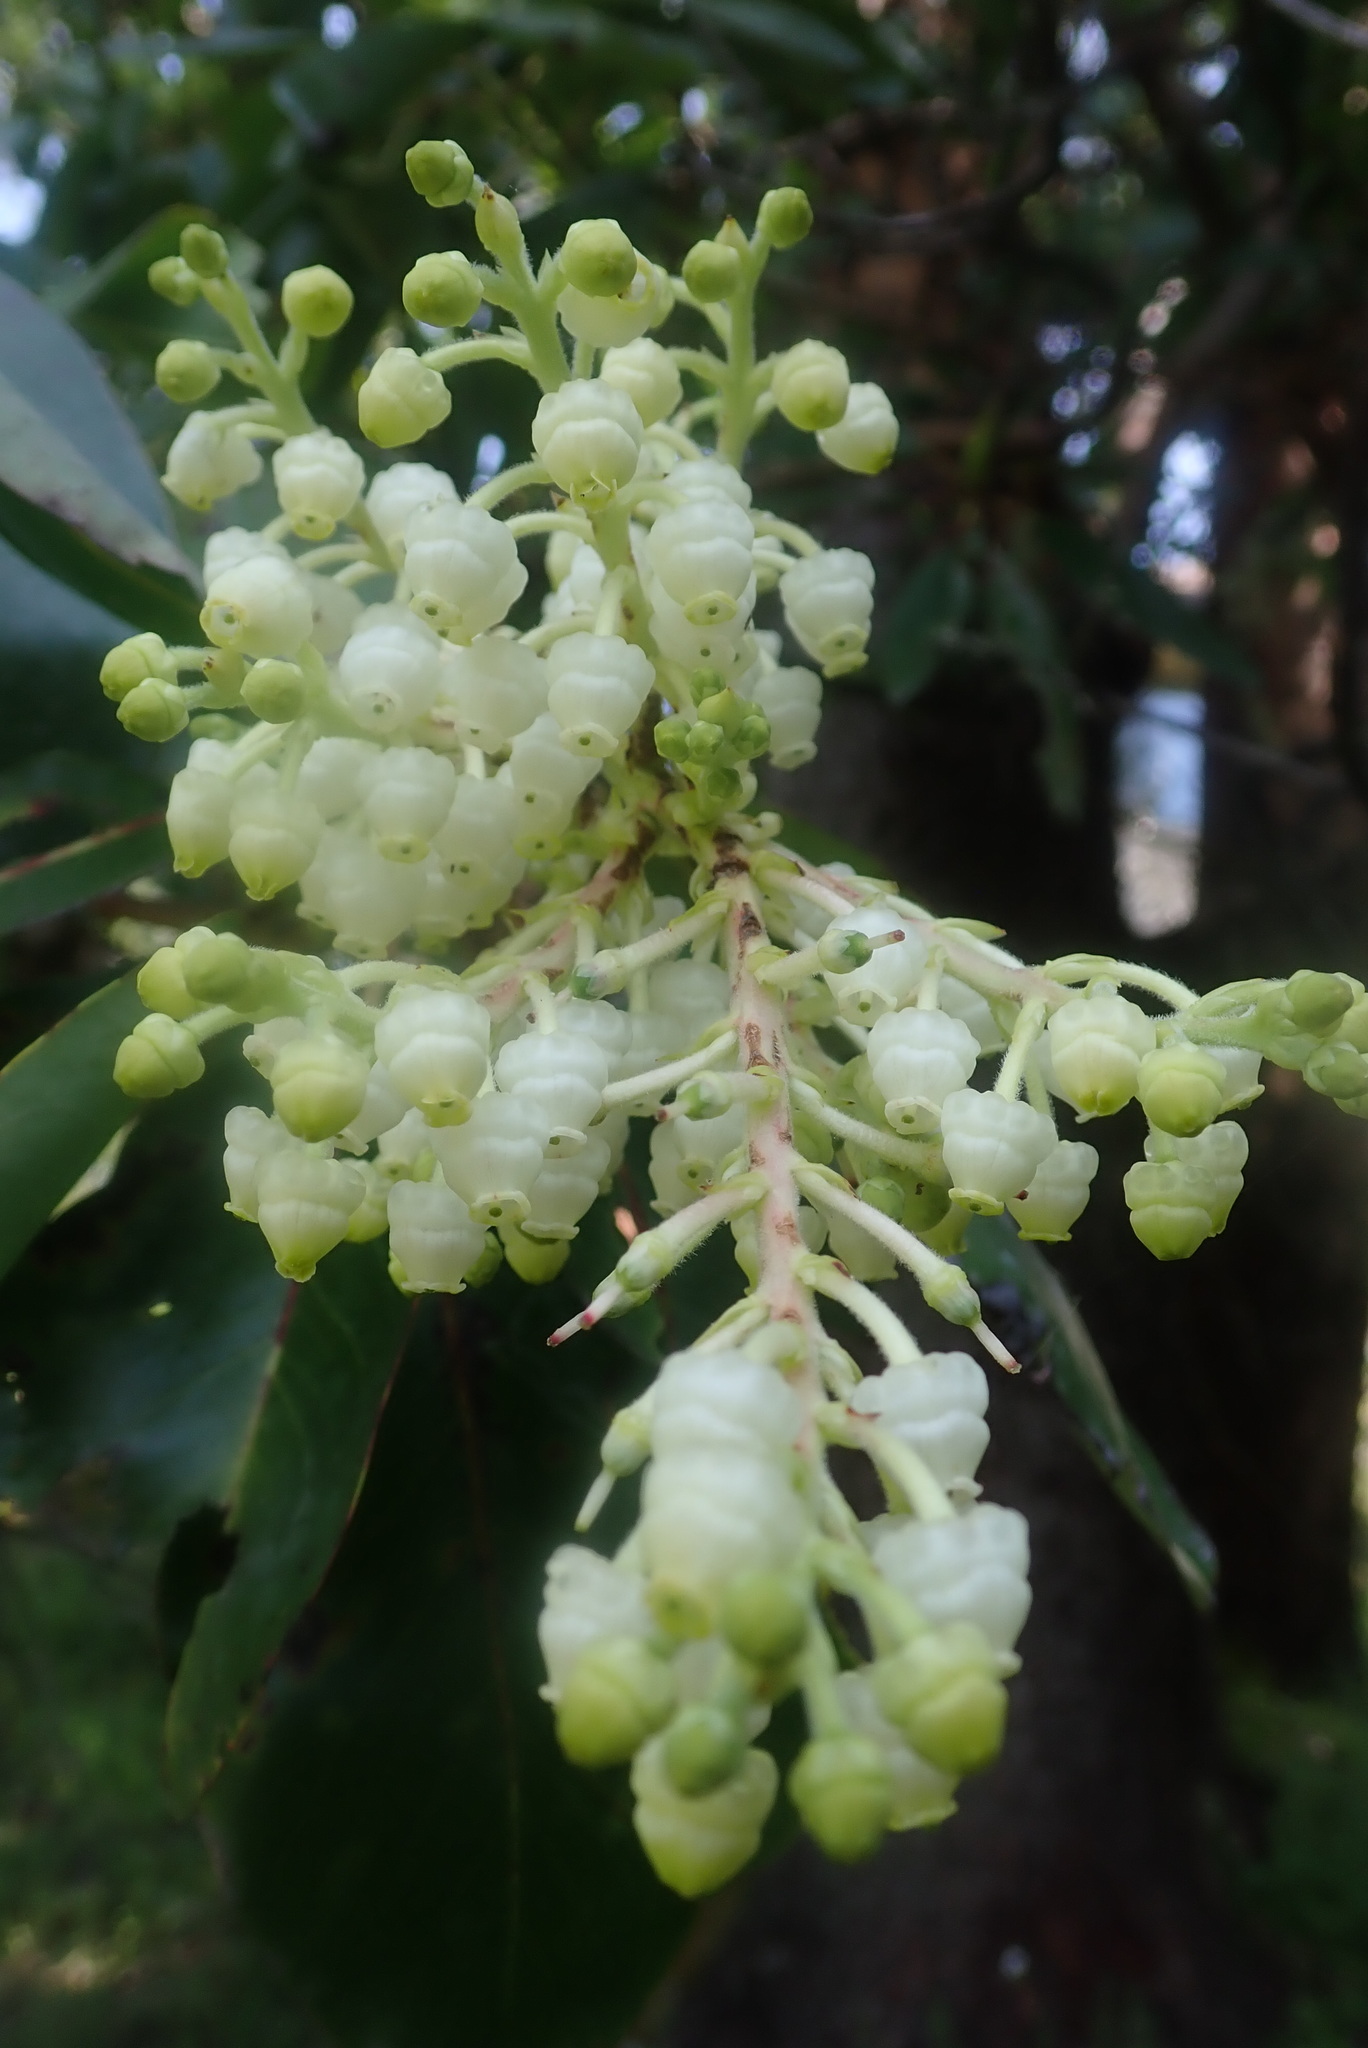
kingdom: Plantae
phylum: Tracheophyta
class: Magnoliopsida
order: Ericales
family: Ericaceae
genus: Arbutus
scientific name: Arbutus menziesii
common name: Pacific madrone
